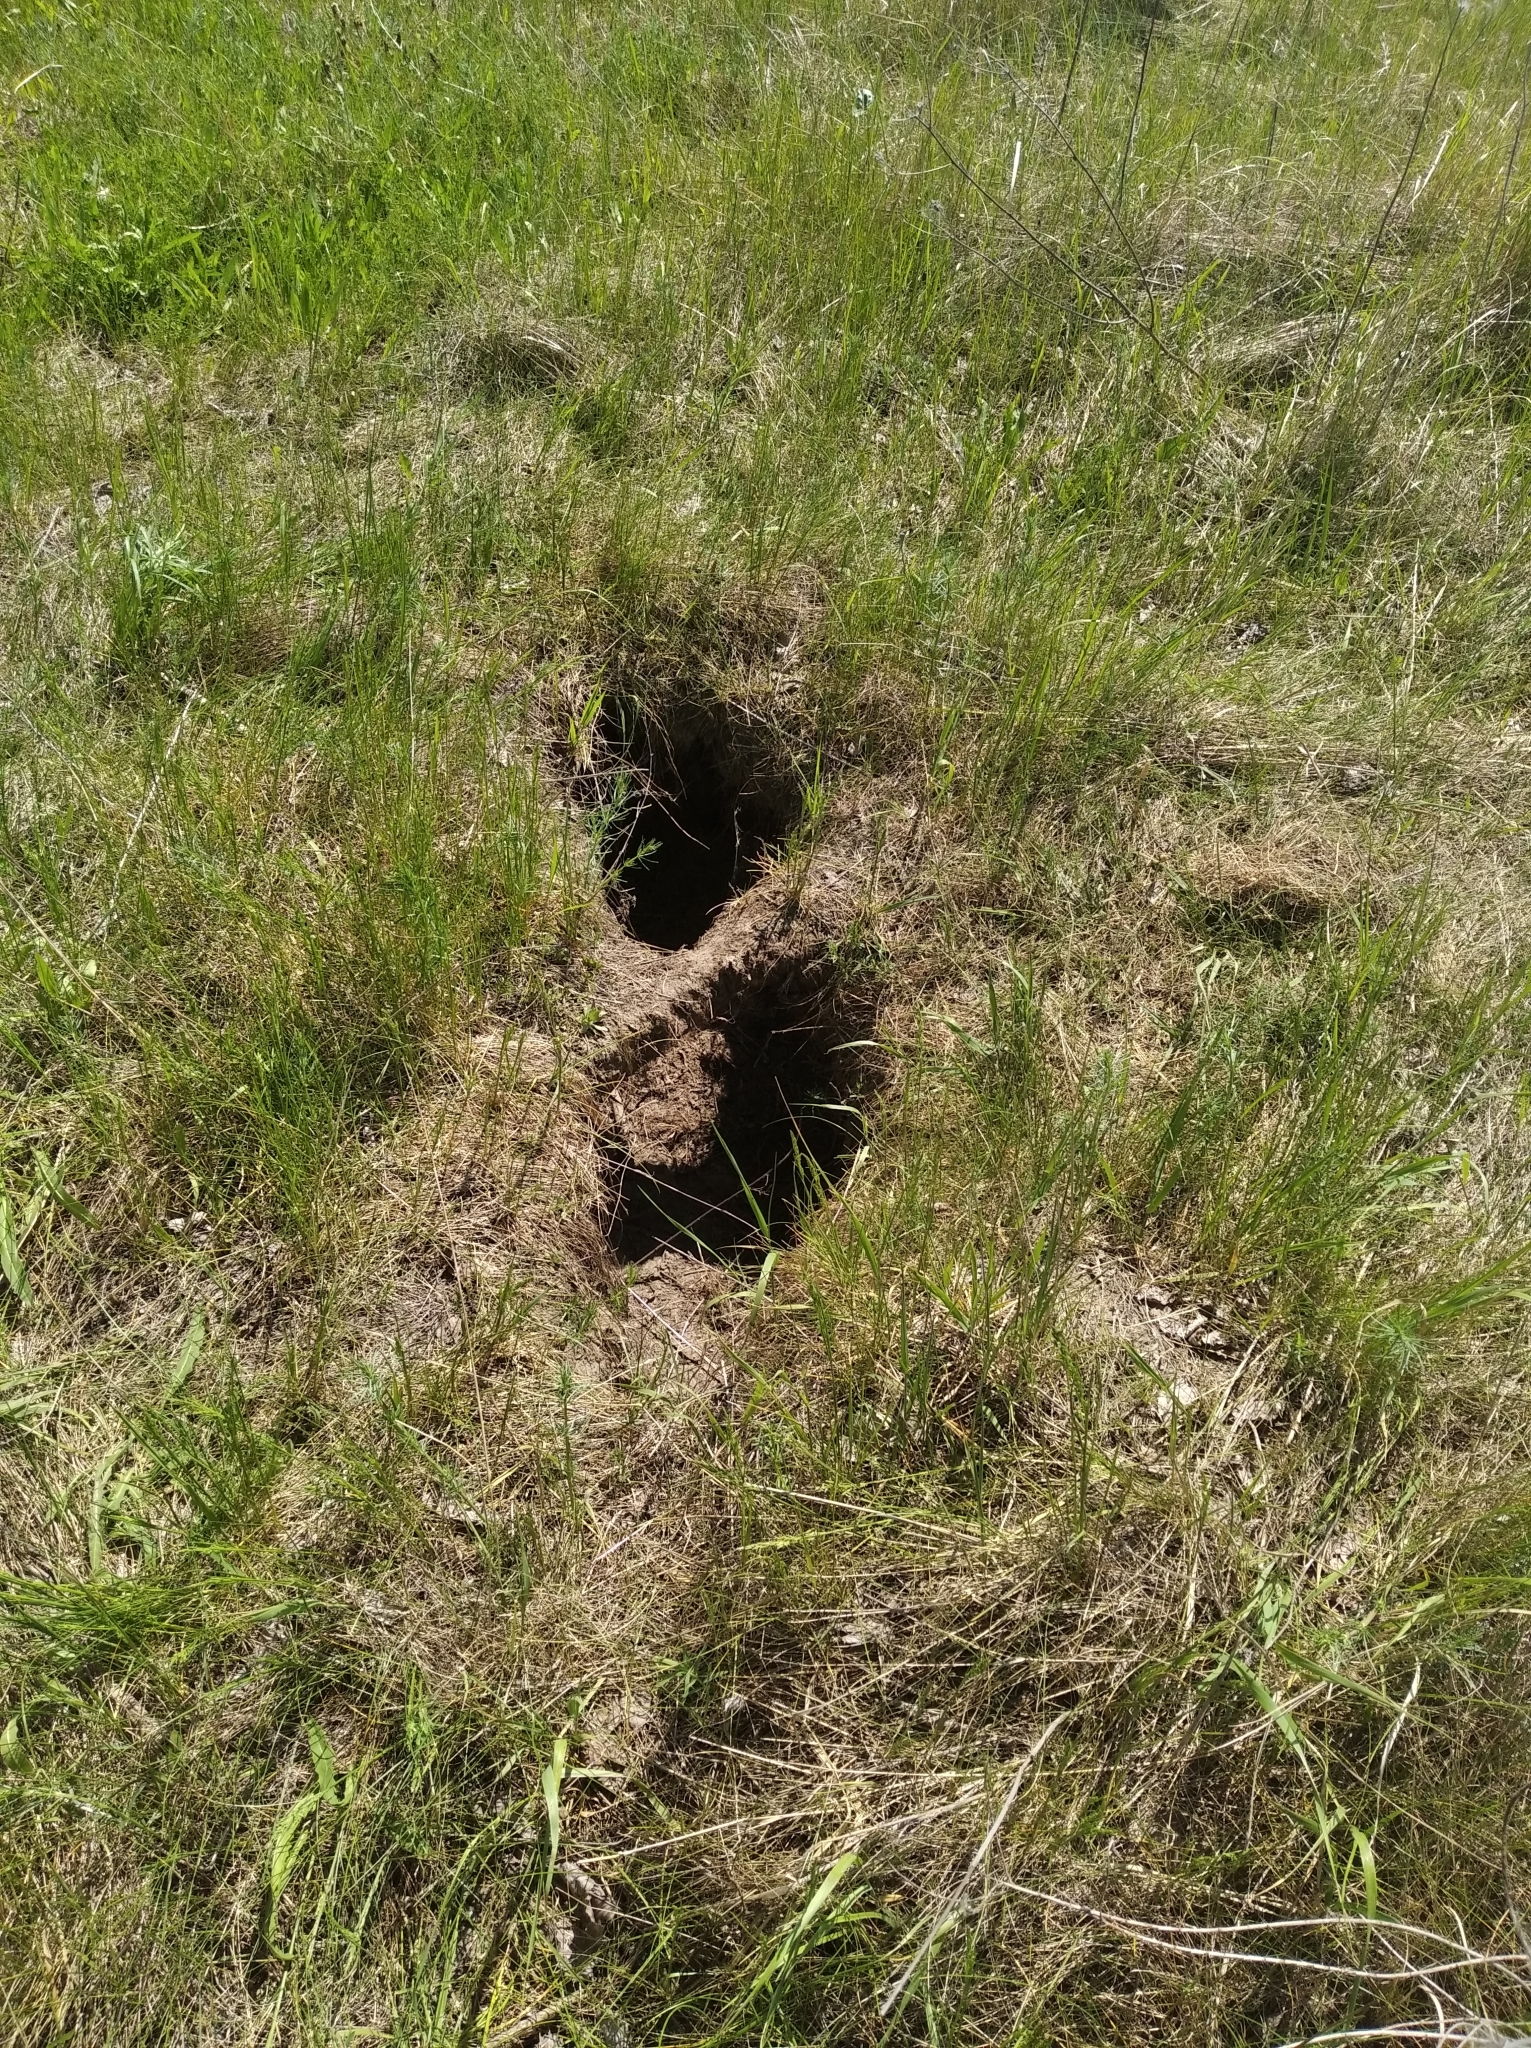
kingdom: Animalia
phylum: Chordata
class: Mammalia
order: Rodentia
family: Castoridae
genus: Castor
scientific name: Castor fiber
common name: Eurasian beaver
